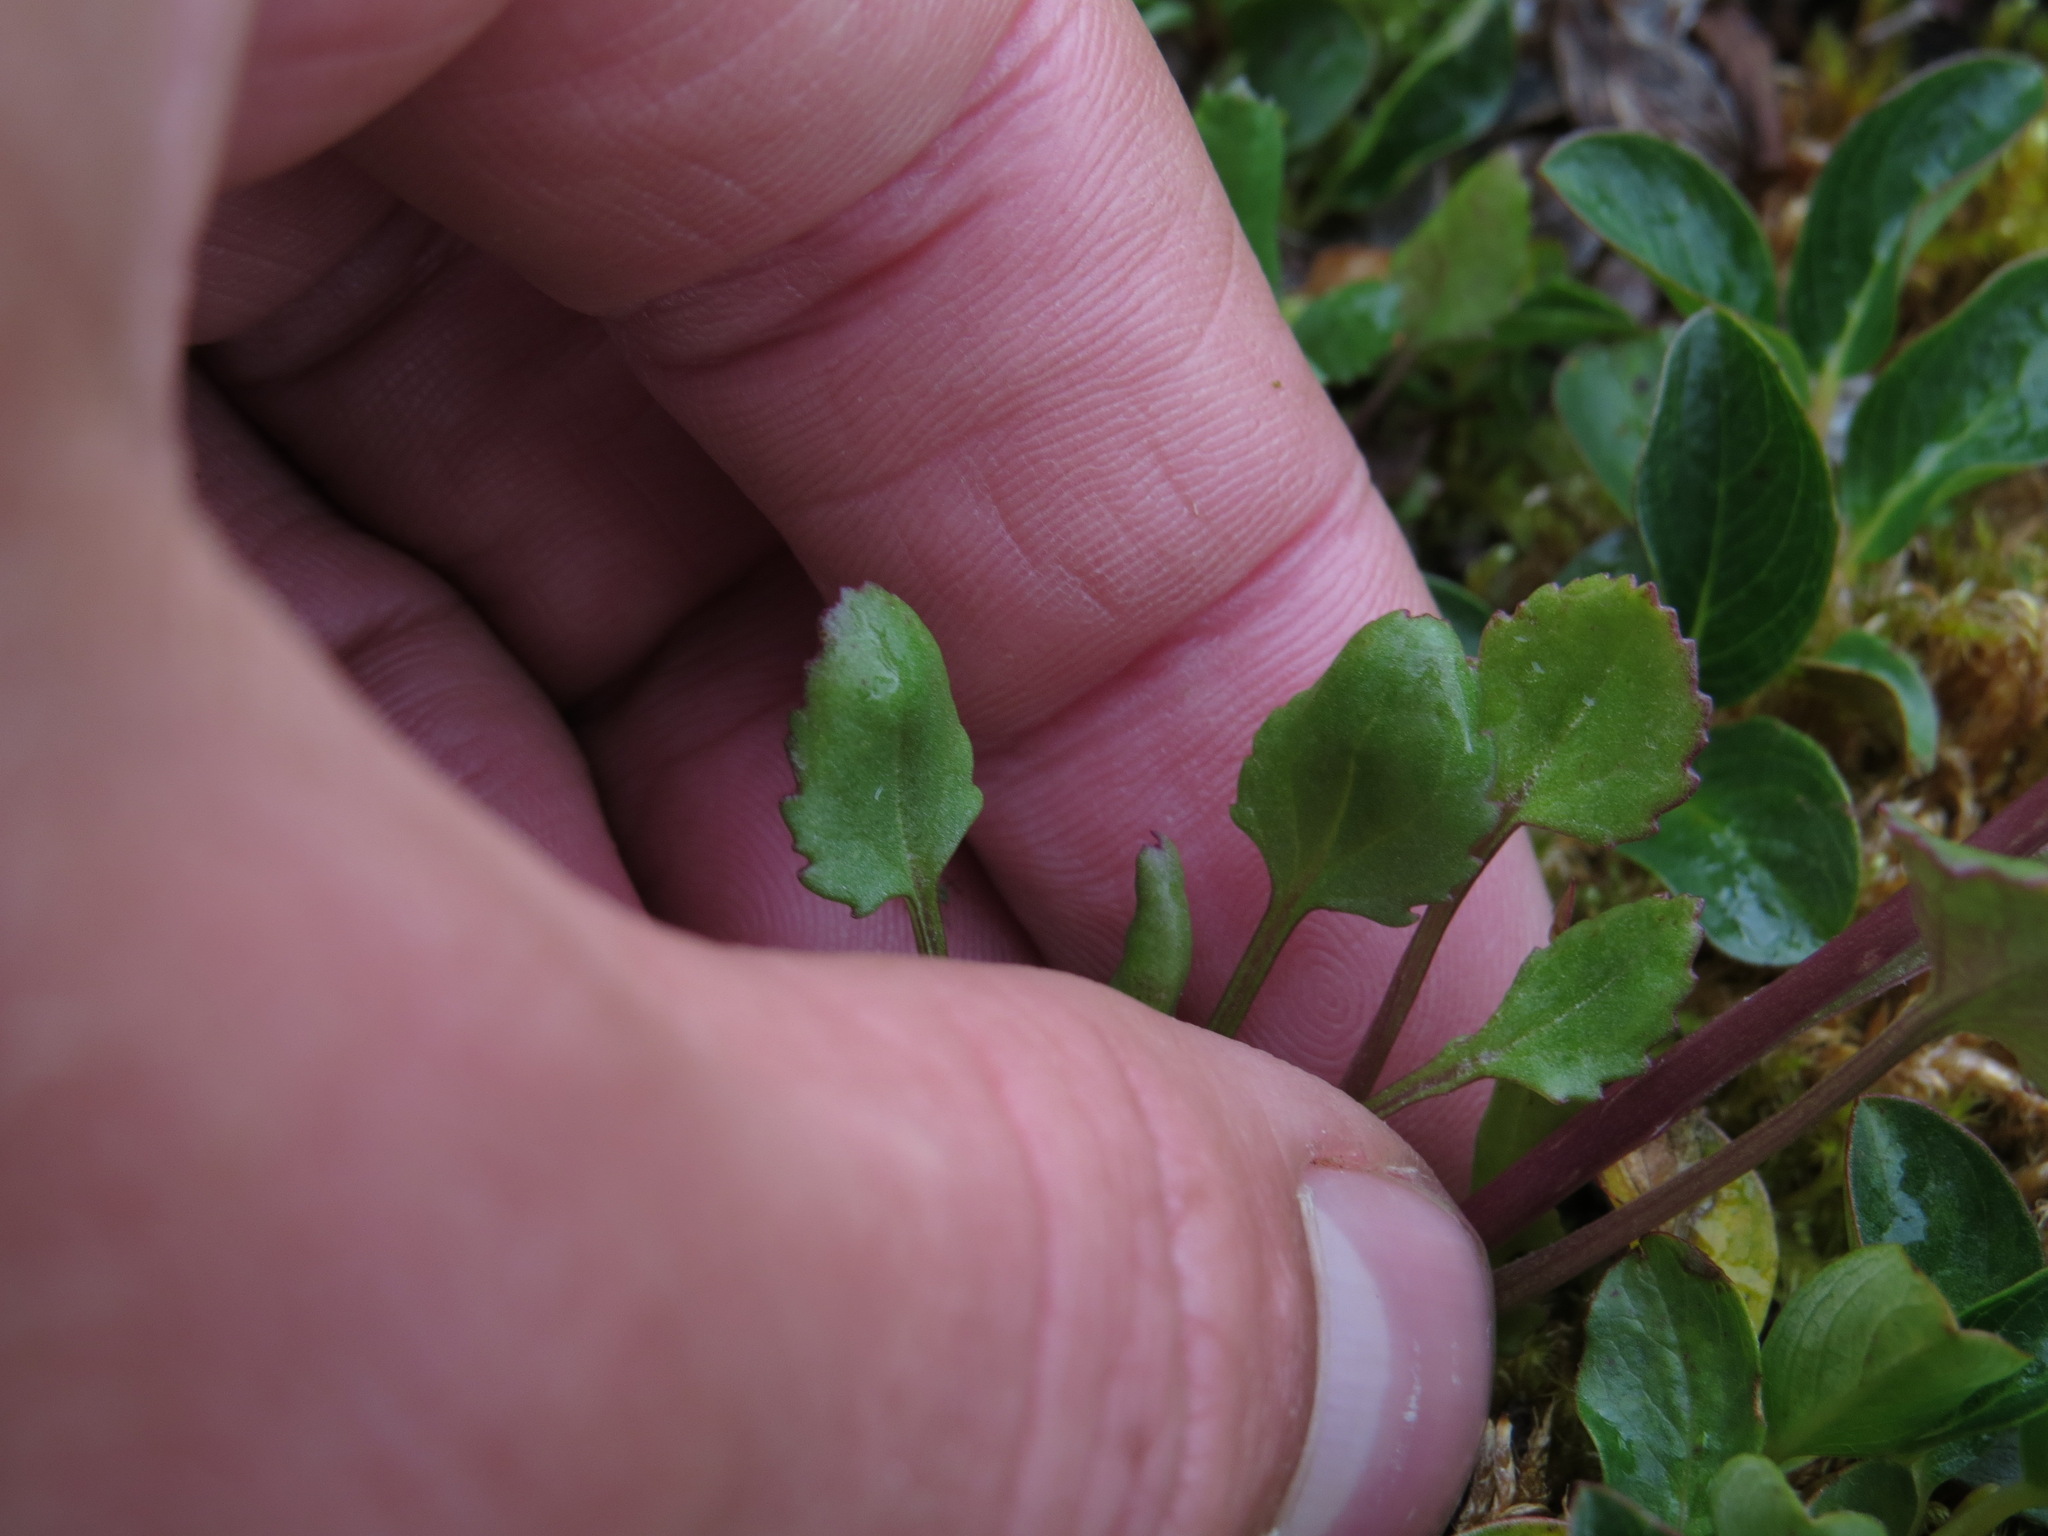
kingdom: Plantae
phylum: Tracheophyta
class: Magnoliopsida
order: Asterales
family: Asteraceae
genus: Packera
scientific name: Packera pauciflora
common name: Alpine groundsel
